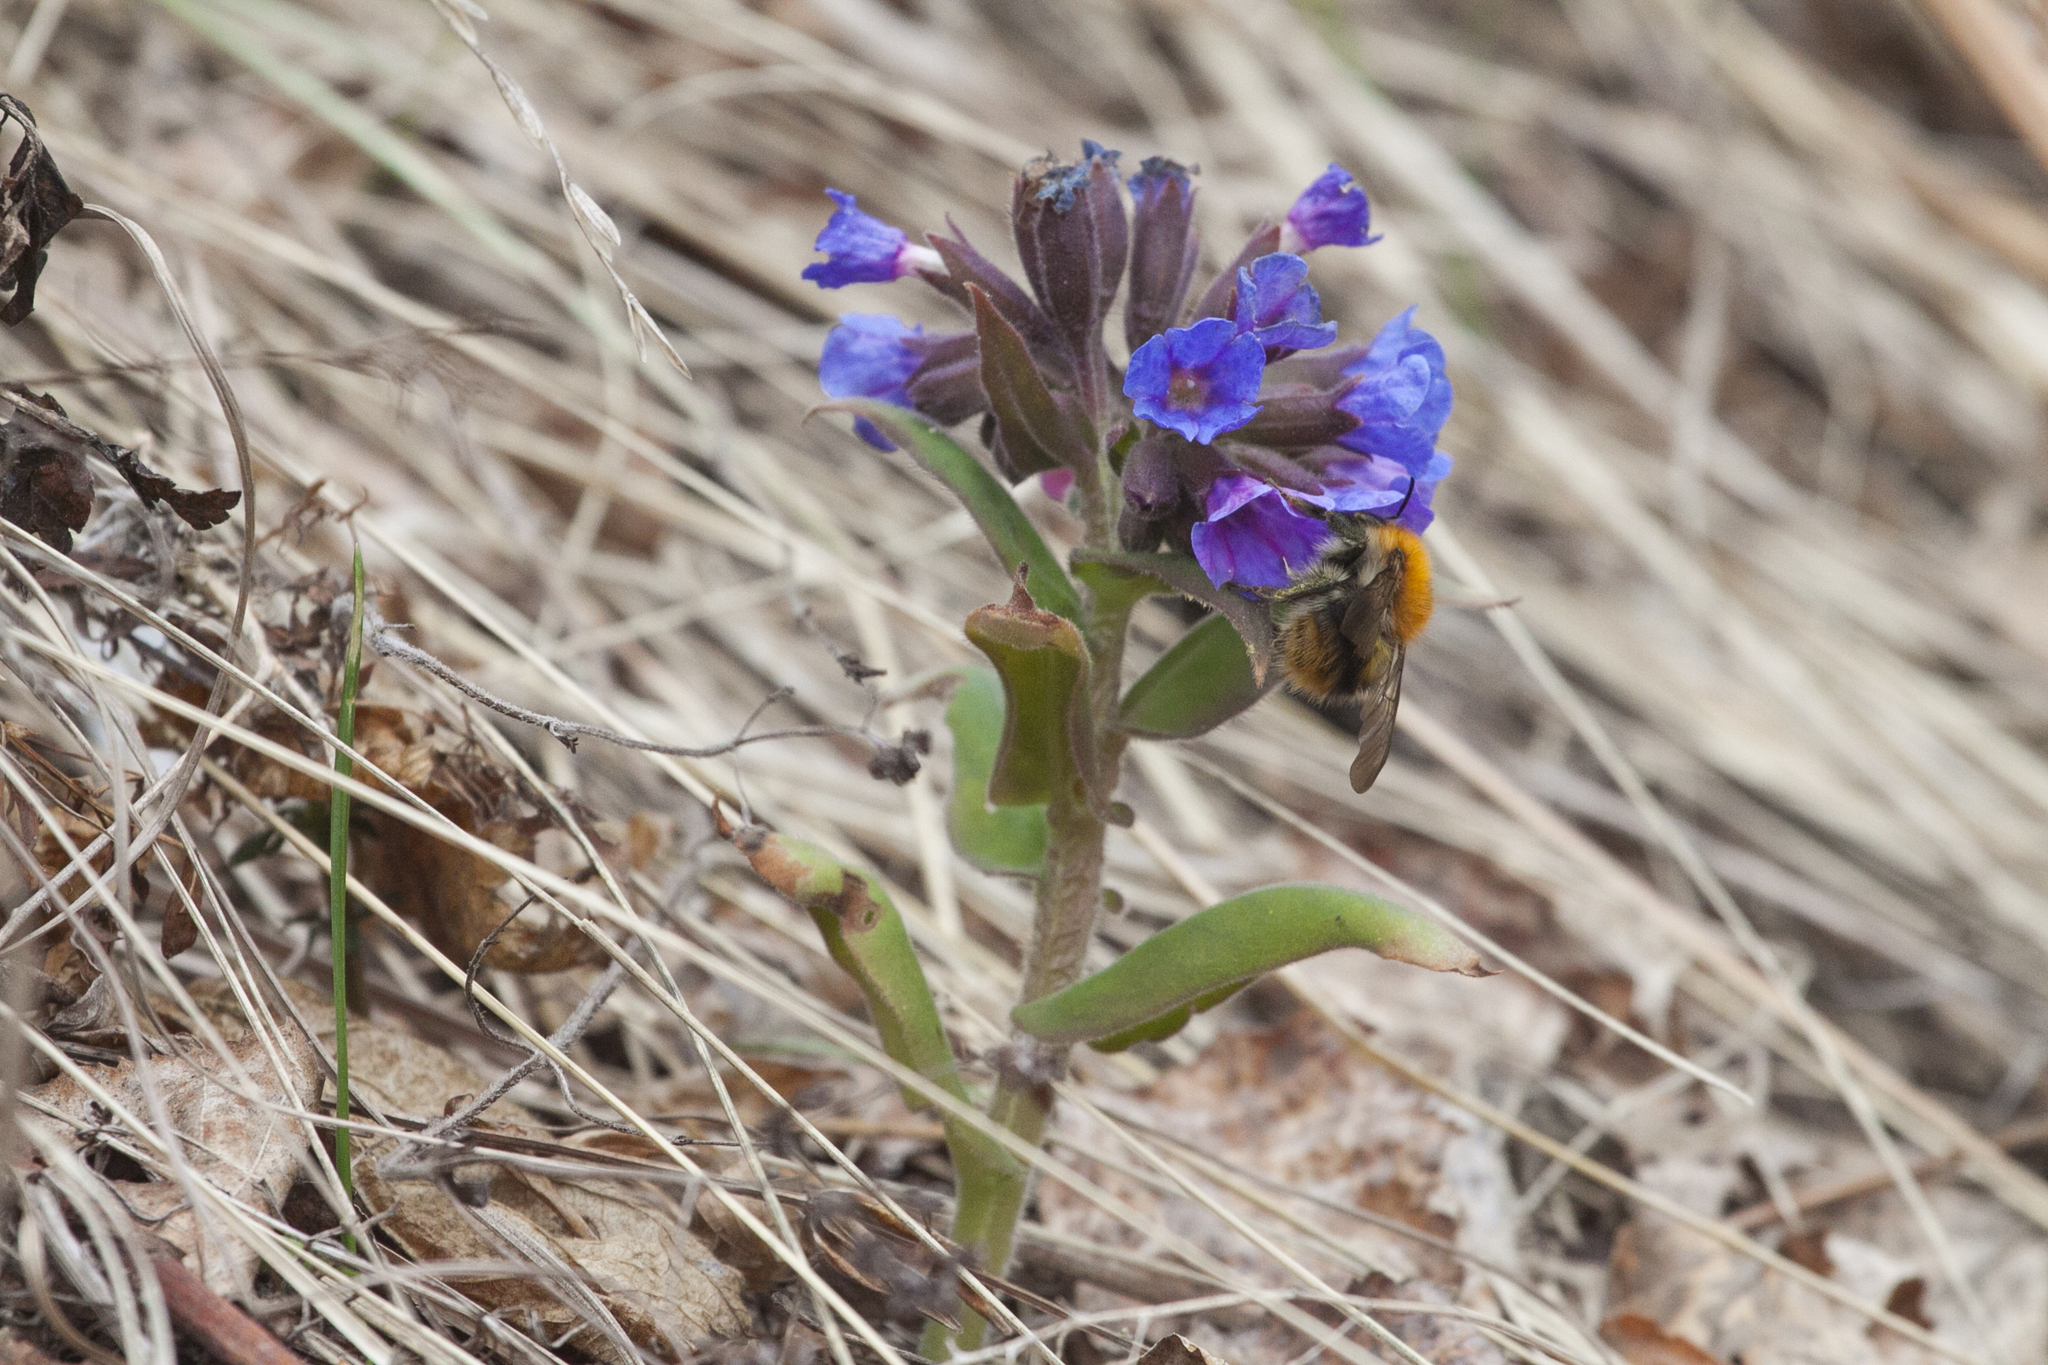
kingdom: Plantae
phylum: Tracheophyta
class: Magnoliopsida
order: Boraginales
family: Boraginaceae
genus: Pulmonaria
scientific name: Pulmonaria mollis
